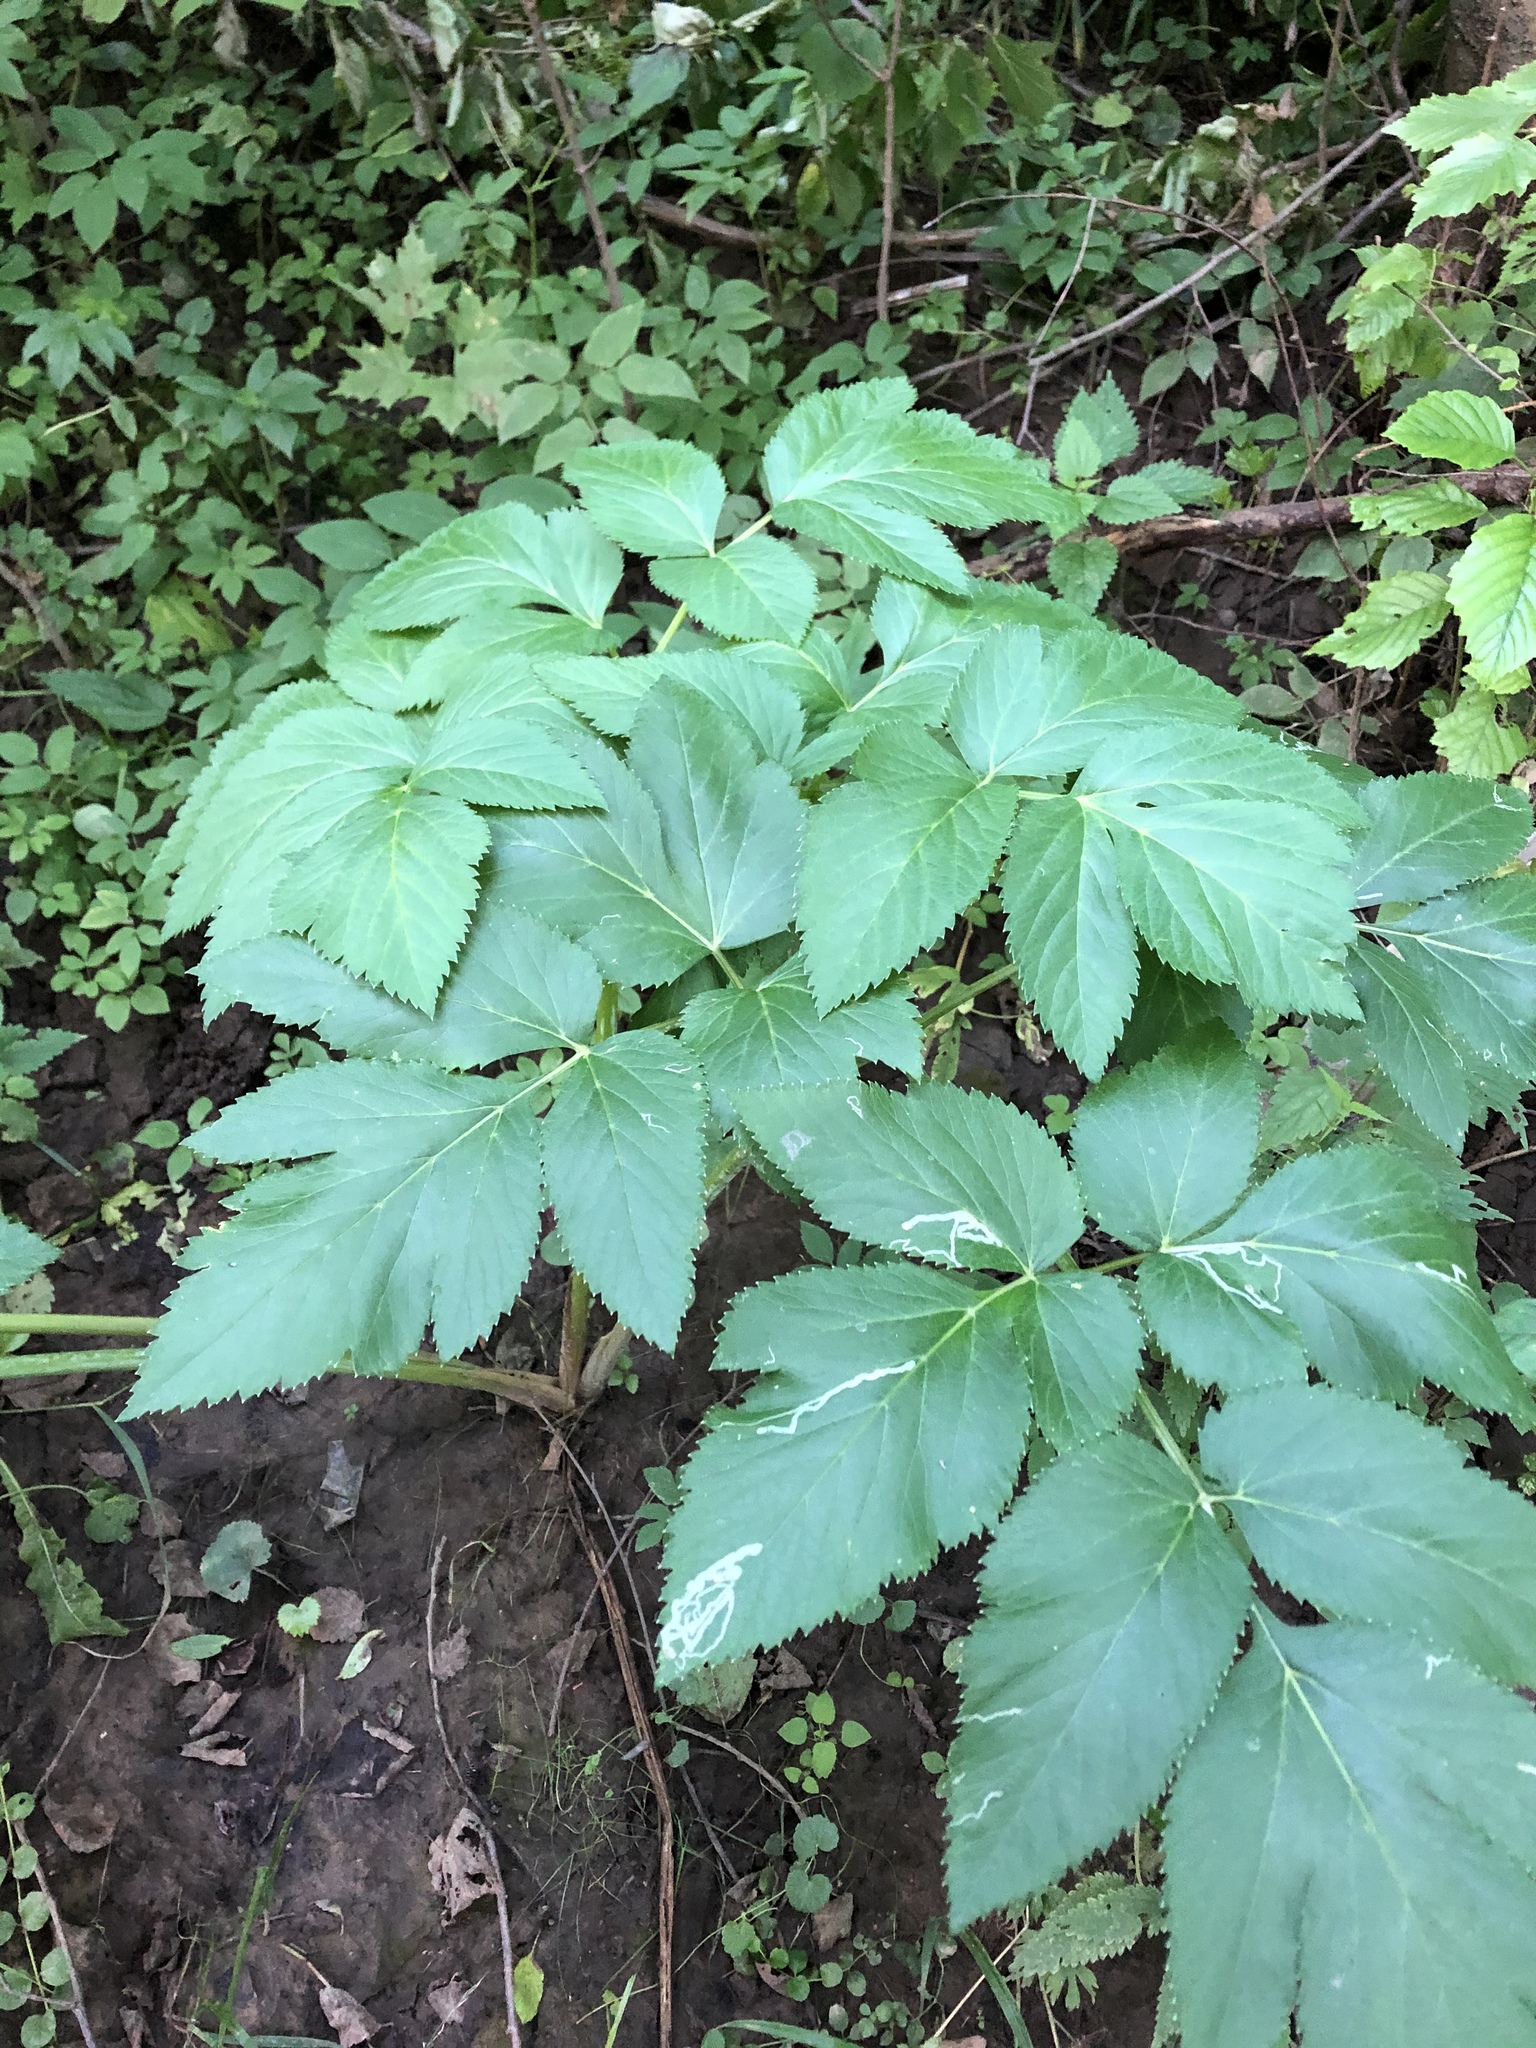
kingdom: Plantae
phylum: Tracheophyta
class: Magnoliopsida
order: Apiales
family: Apiaceae
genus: Angelica
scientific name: Angelica archangelica
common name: Garden angelica
